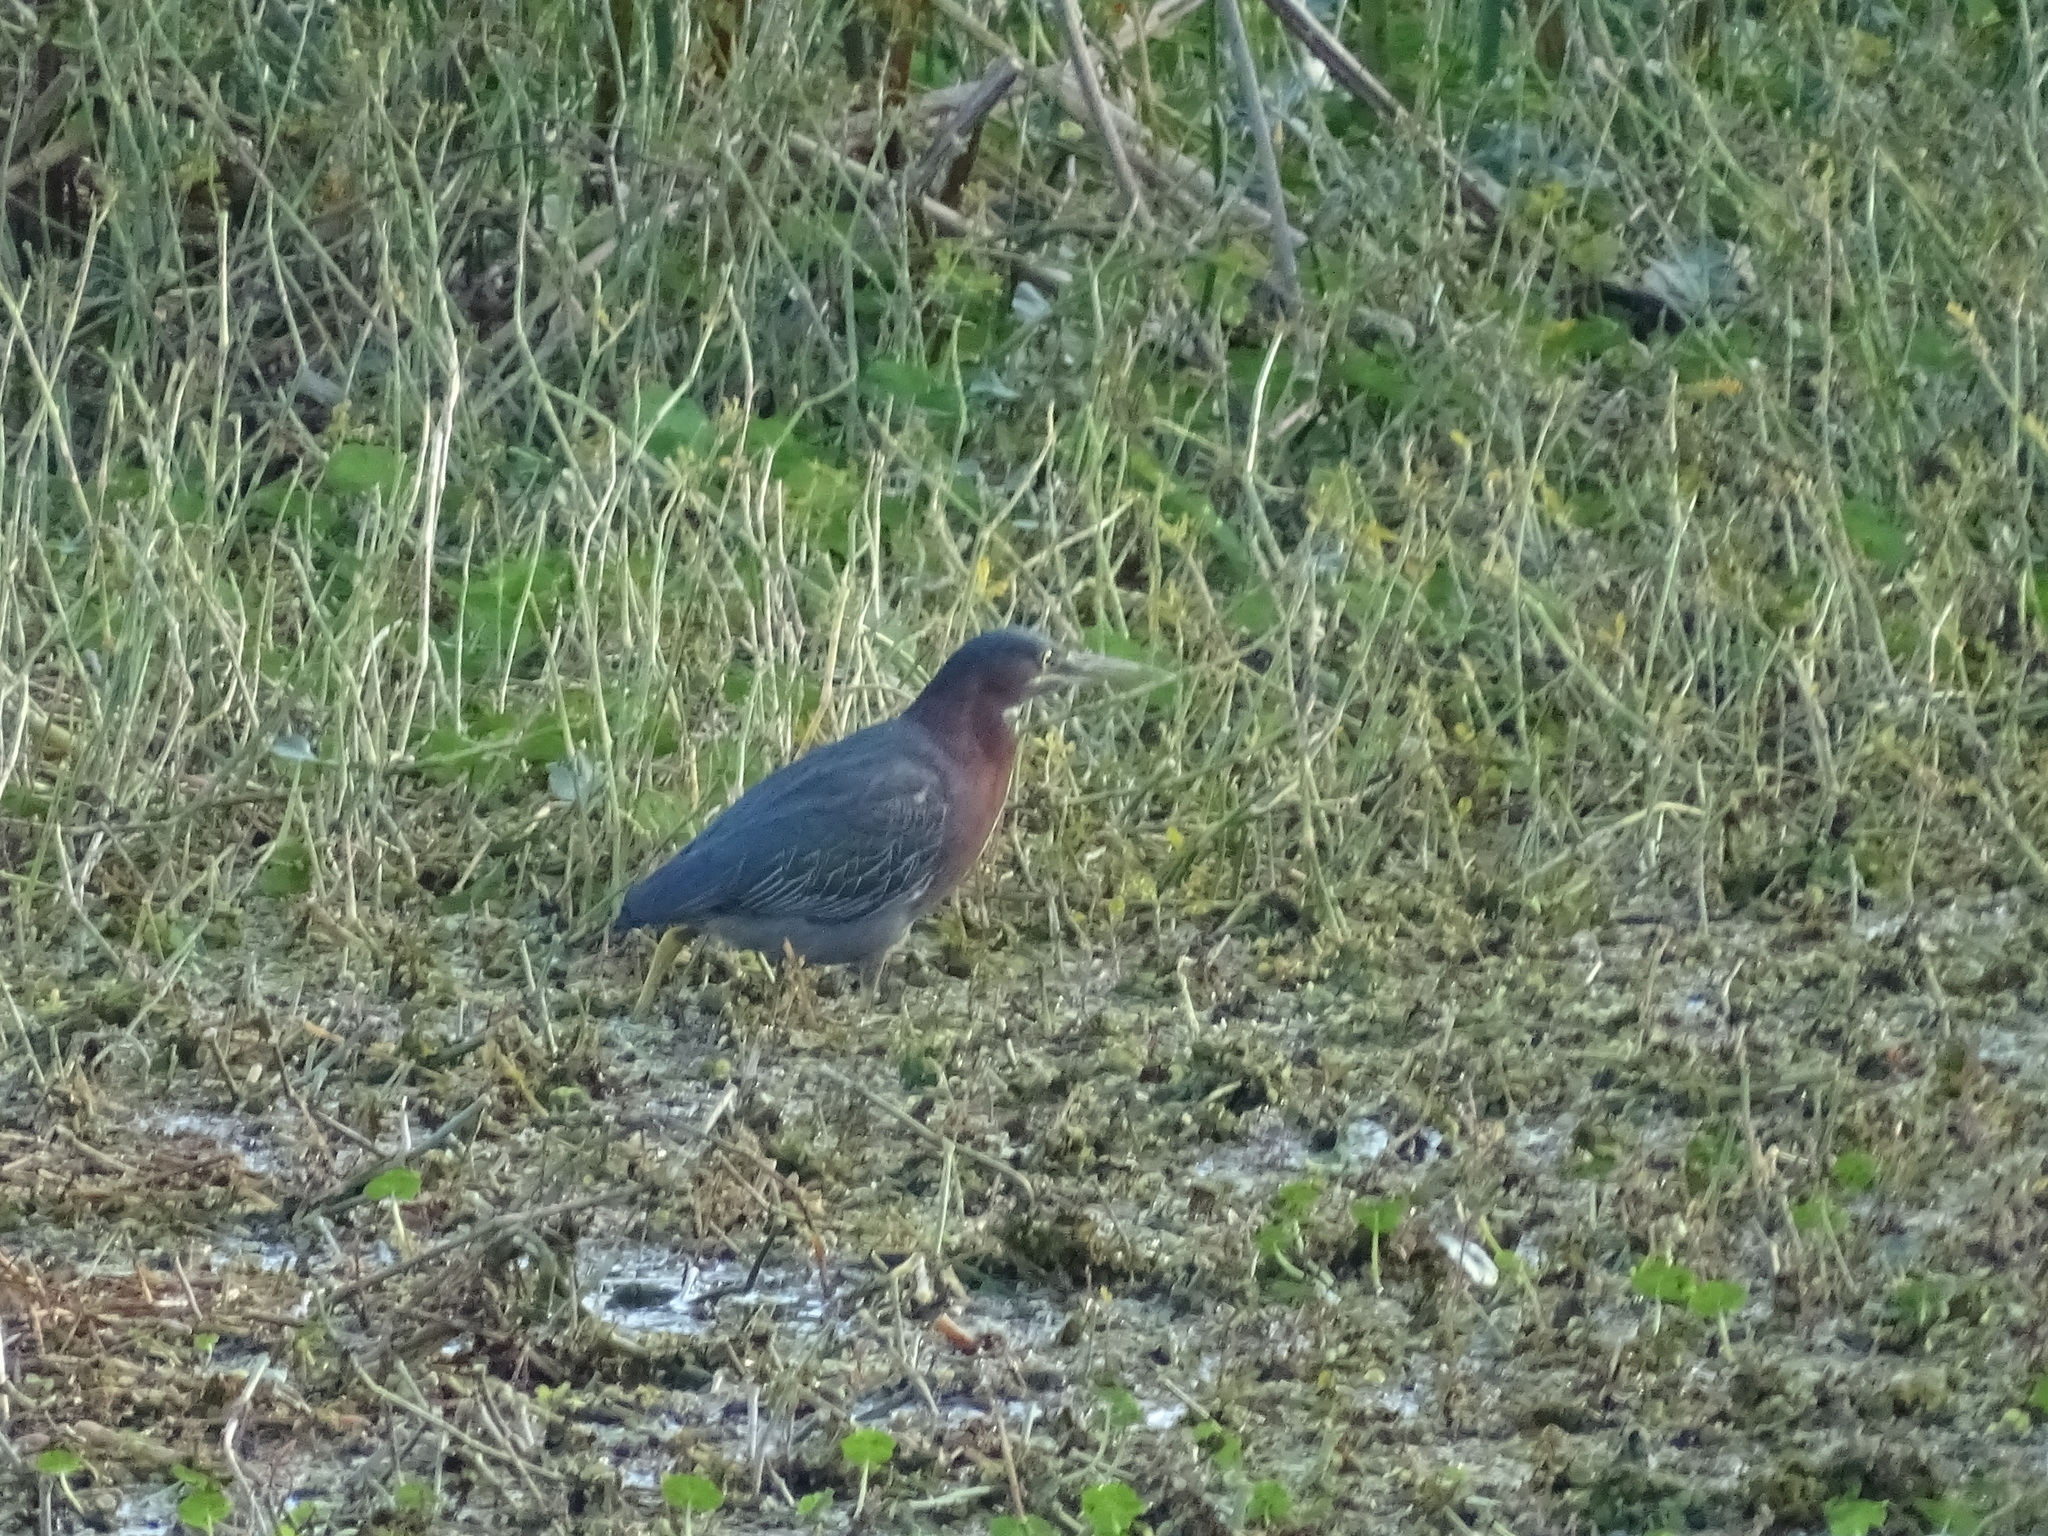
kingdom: Animalia
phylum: Chordata
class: Aves
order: Pelecaniformes
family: Ardeidae
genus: Butorides
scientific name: Butorides virescens
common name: Green heron
